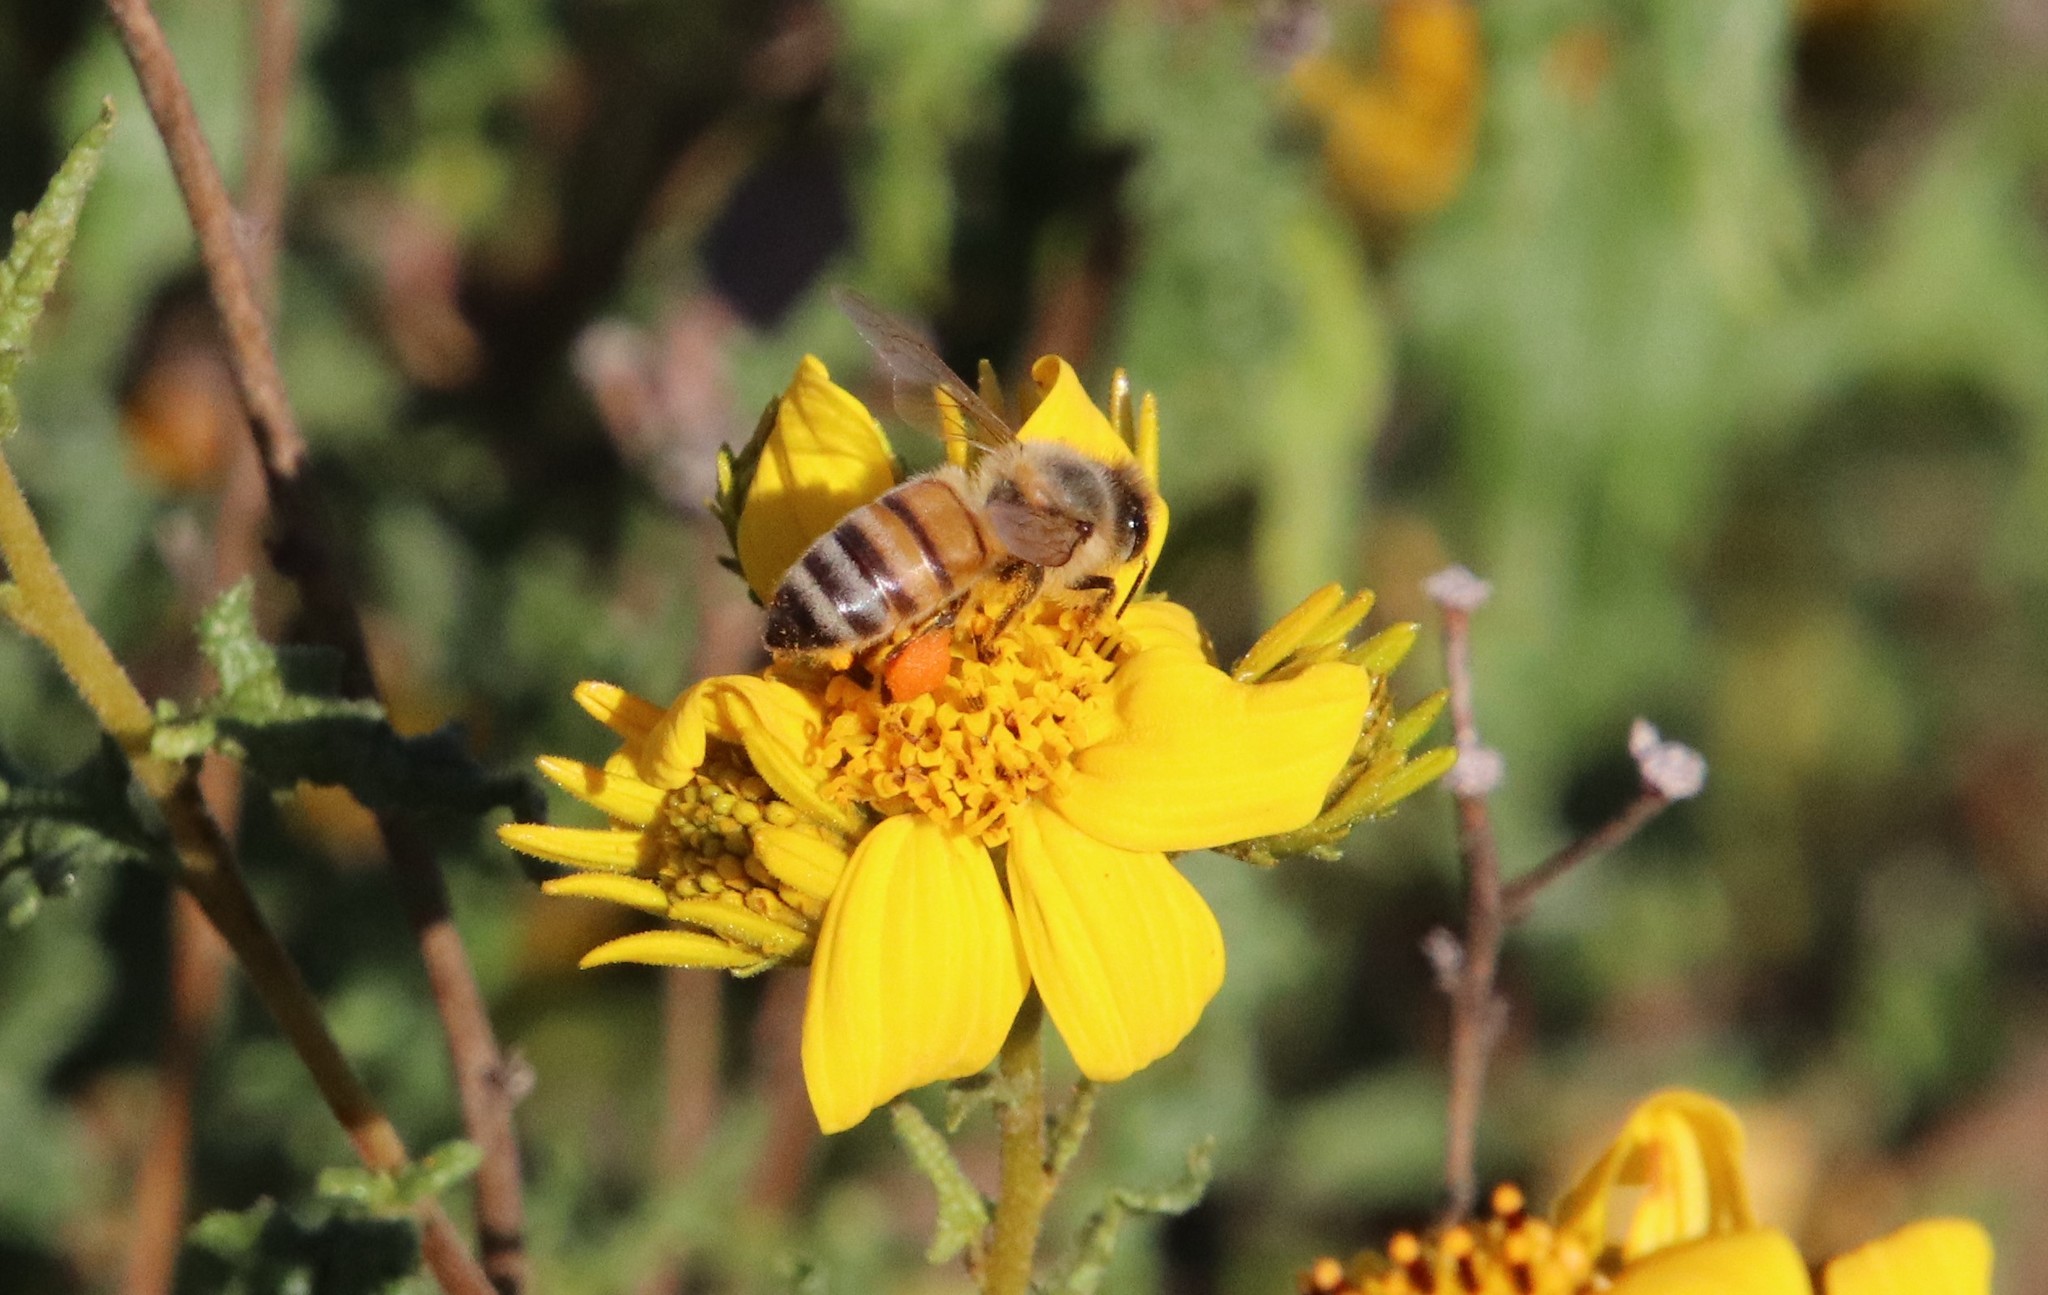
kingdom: Animalia
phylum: Arthropoda
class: Insecta
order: Hymenoptera
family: Apidae
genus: Apis
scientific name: Apis mellifera
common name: Honey bee
